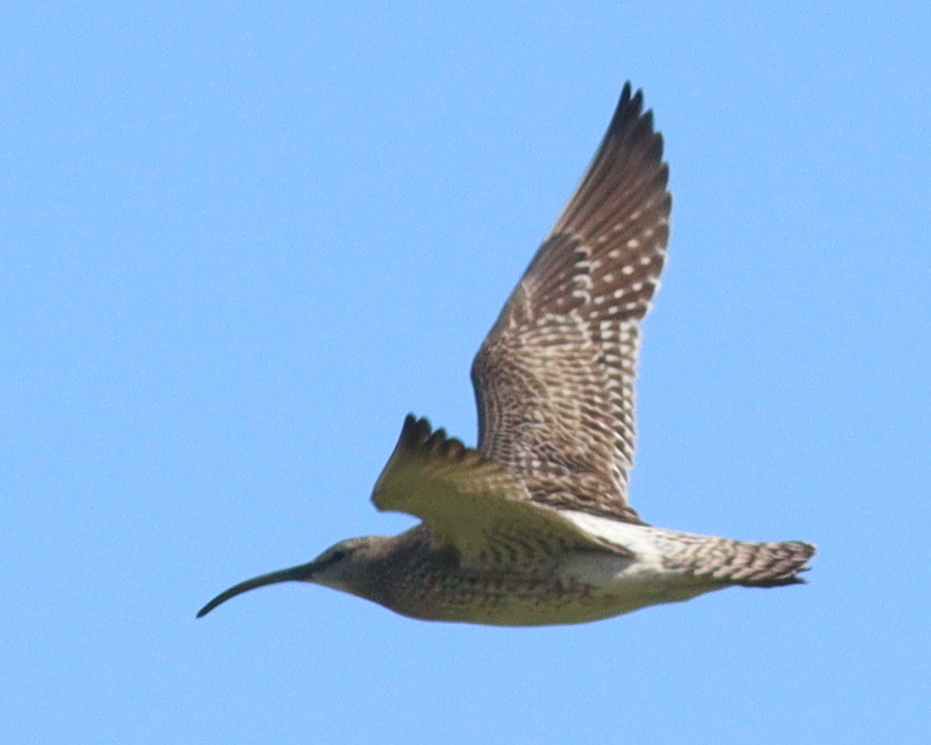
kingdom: Animalia
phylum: Chordata
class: Aves
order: Charadriiformes
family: Scolopacidae
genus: Numenius
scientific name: Numenius phaeopus
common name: Whimbrel
